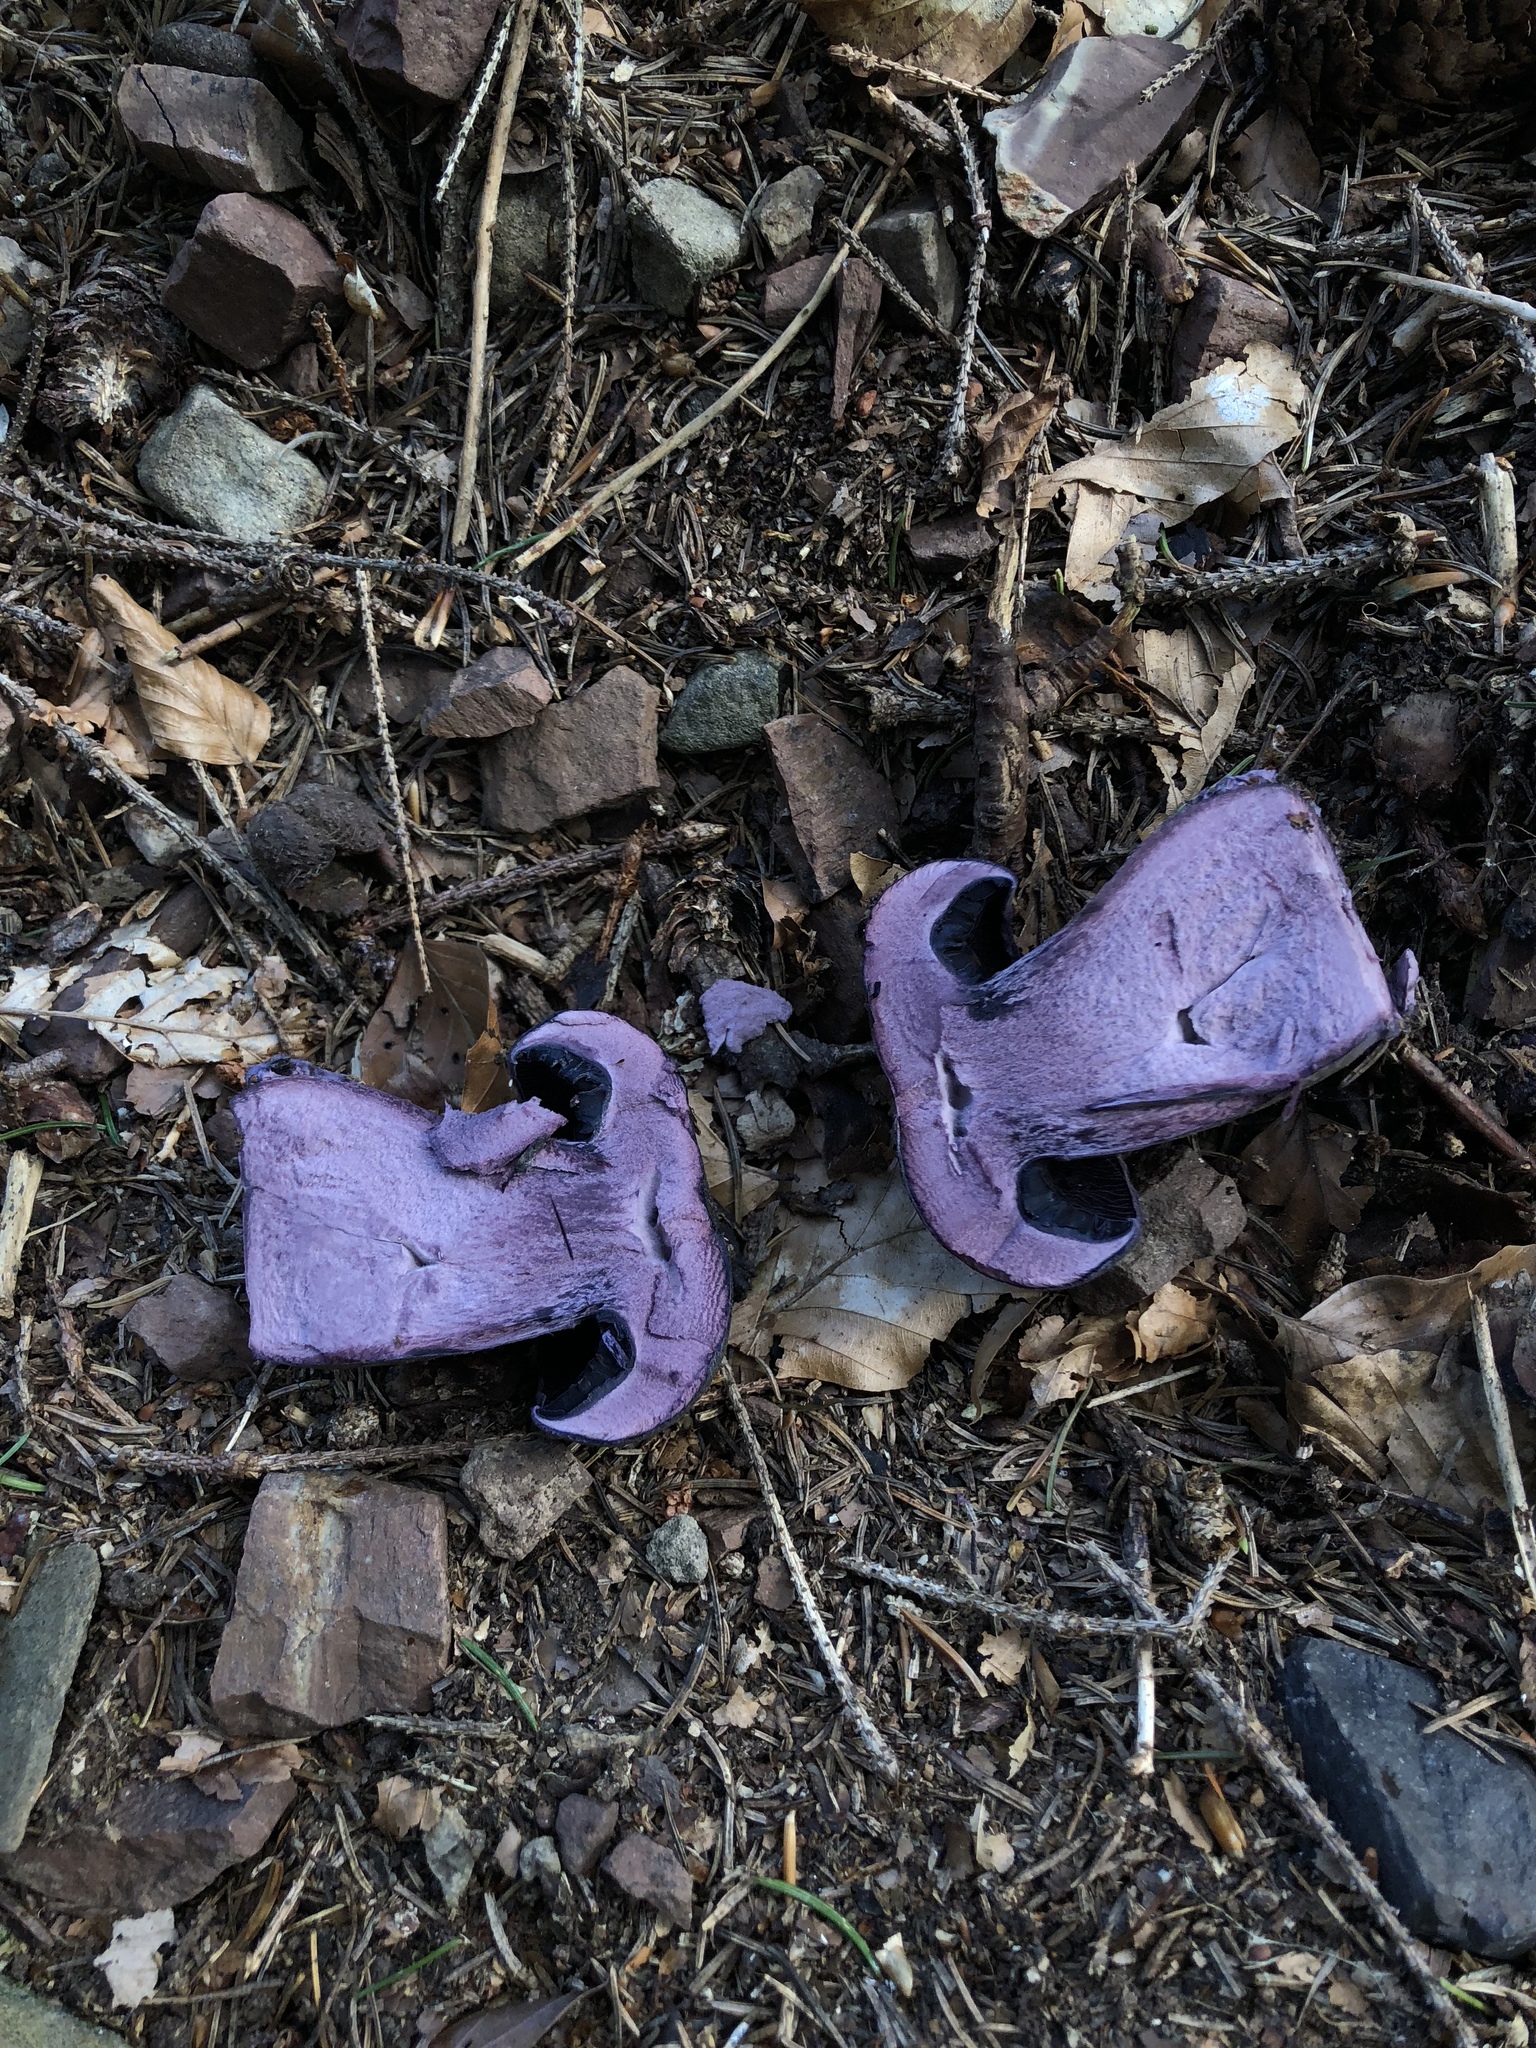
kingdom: Fungi
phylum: Basidiomycota
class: Agaricomycetes
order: Agaricales
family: Cortinariaceae
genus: Cortinarius
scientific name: Cortinarius violaceus
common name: Violet webcap
